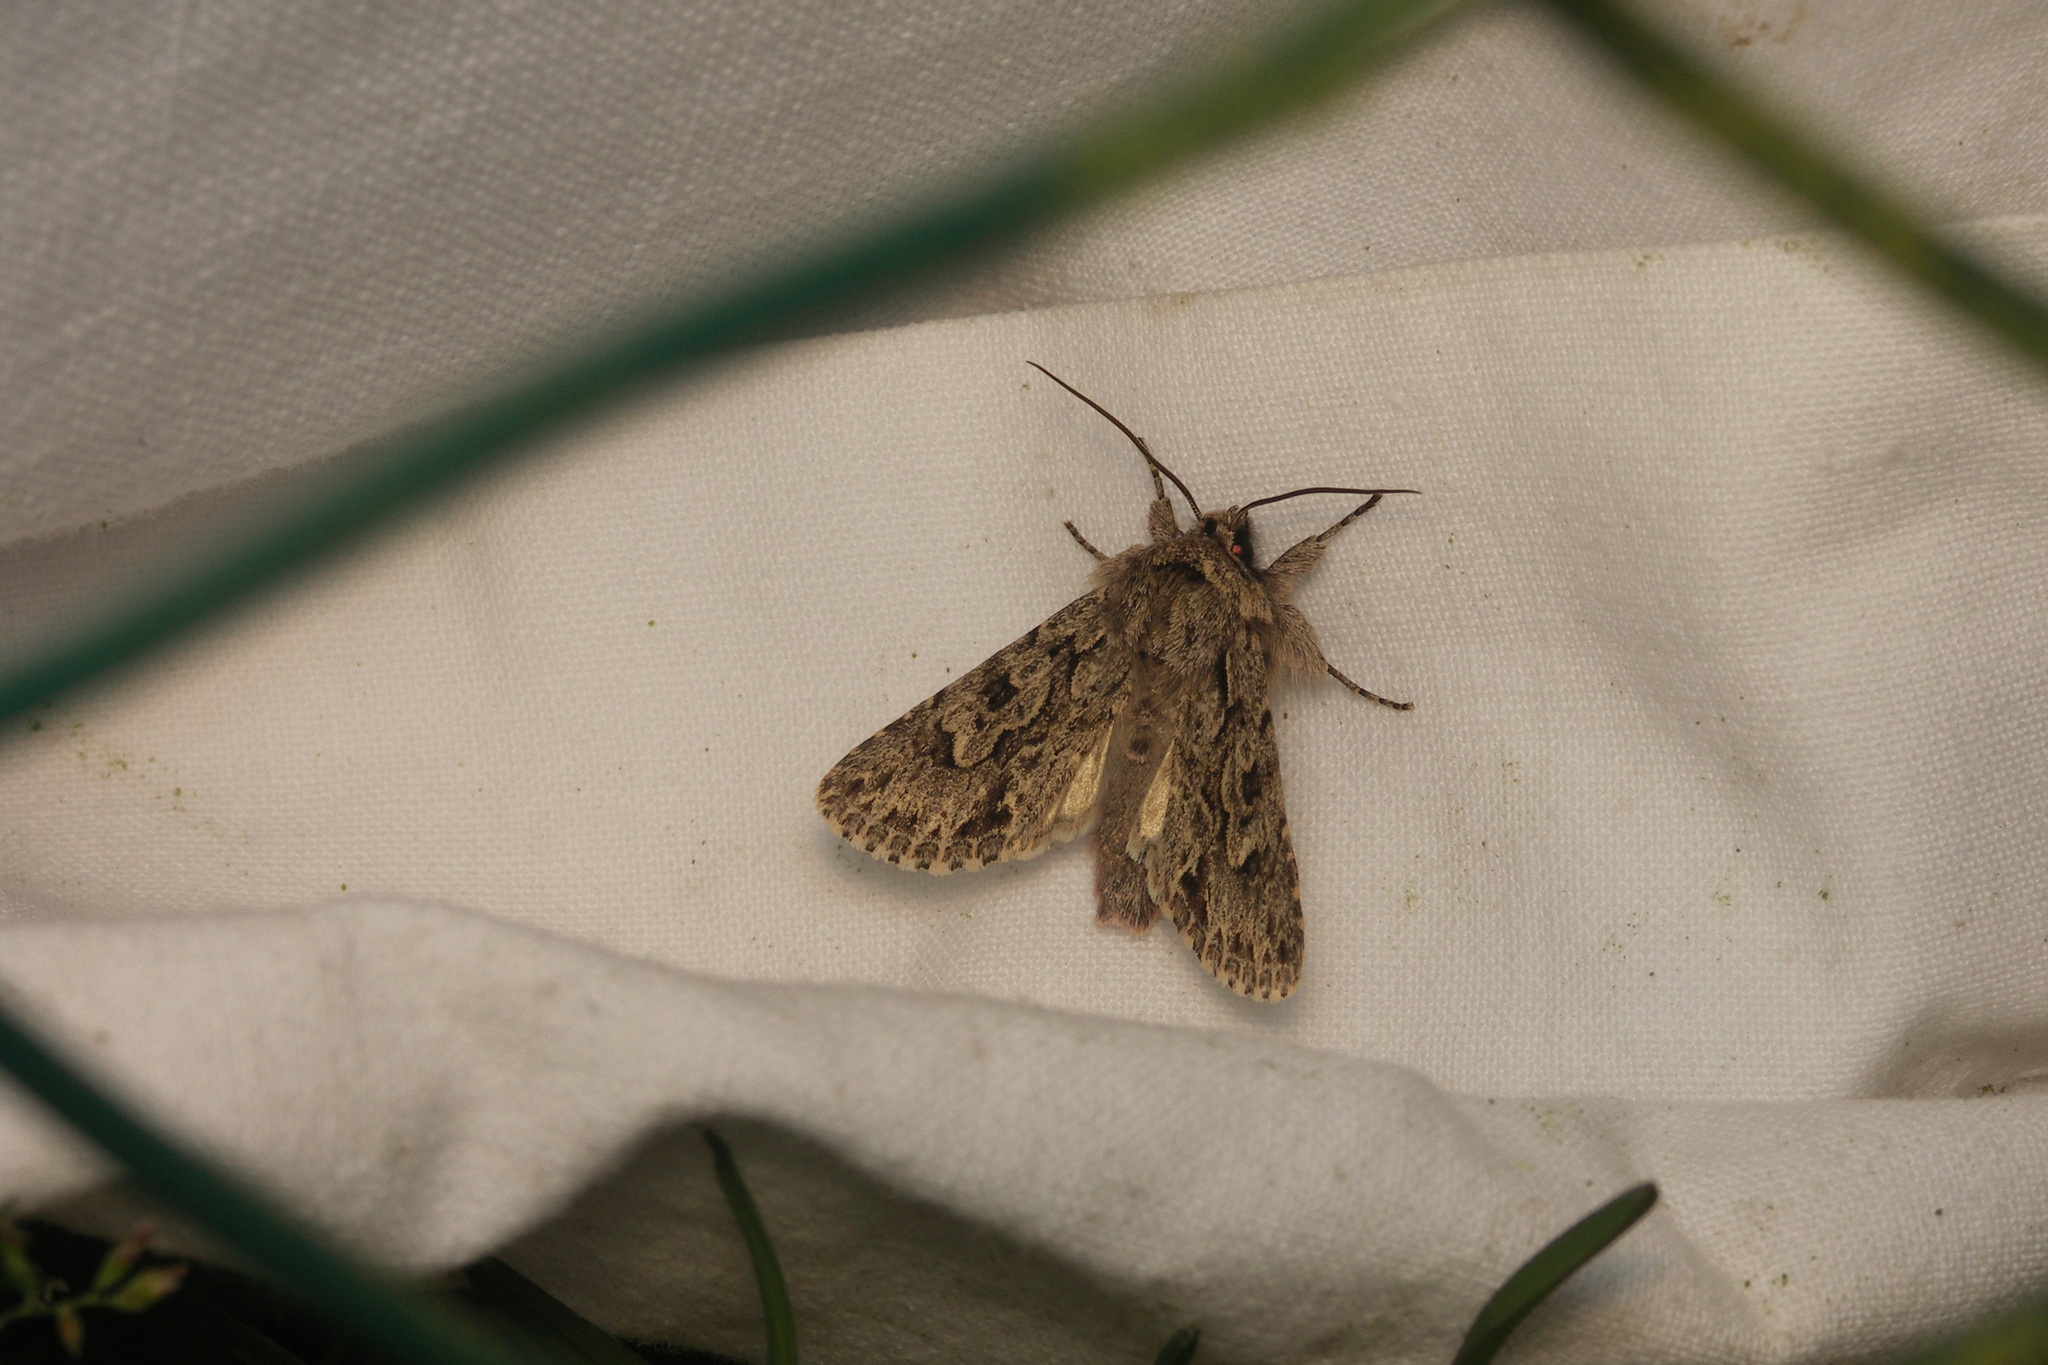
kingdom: Animalia
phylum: Arthropoda
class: Insecta
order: Lepidoptera
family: Noctuidae
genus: Xylocampa
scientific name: Xylocampa areola
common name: Early grey
